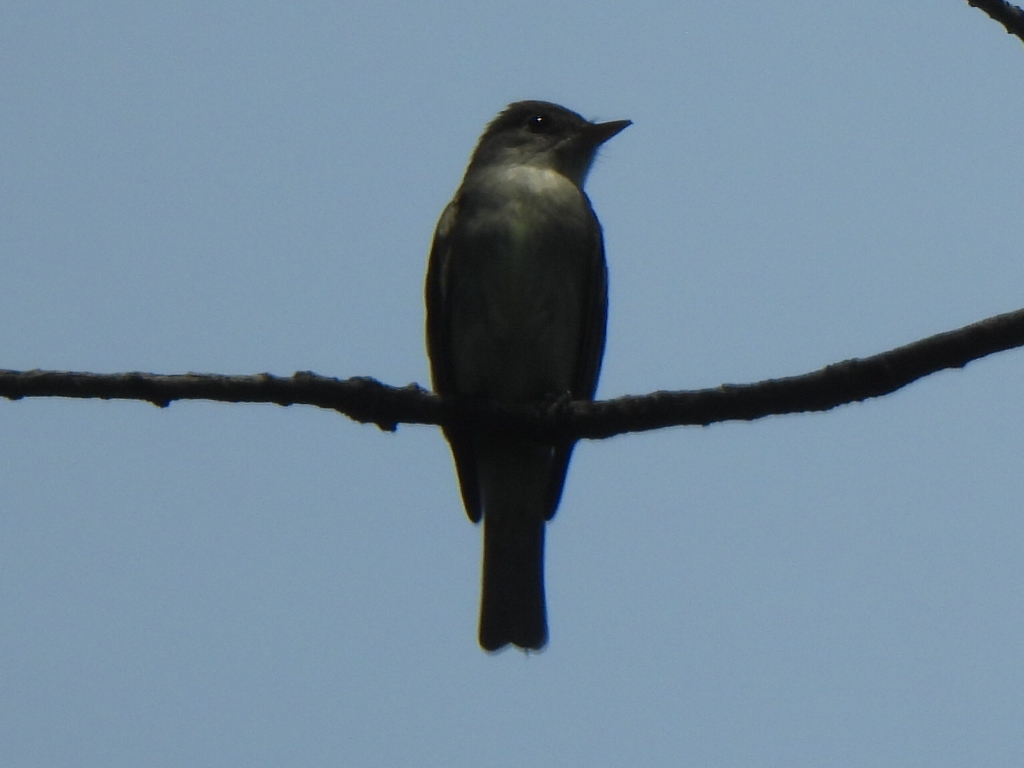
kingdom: Animalia
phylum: Chordata
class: Aves
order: Passeriformes
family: Tyrannidae
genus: Contopus
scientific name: Contopus virens
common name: Eastern wood-pewee
